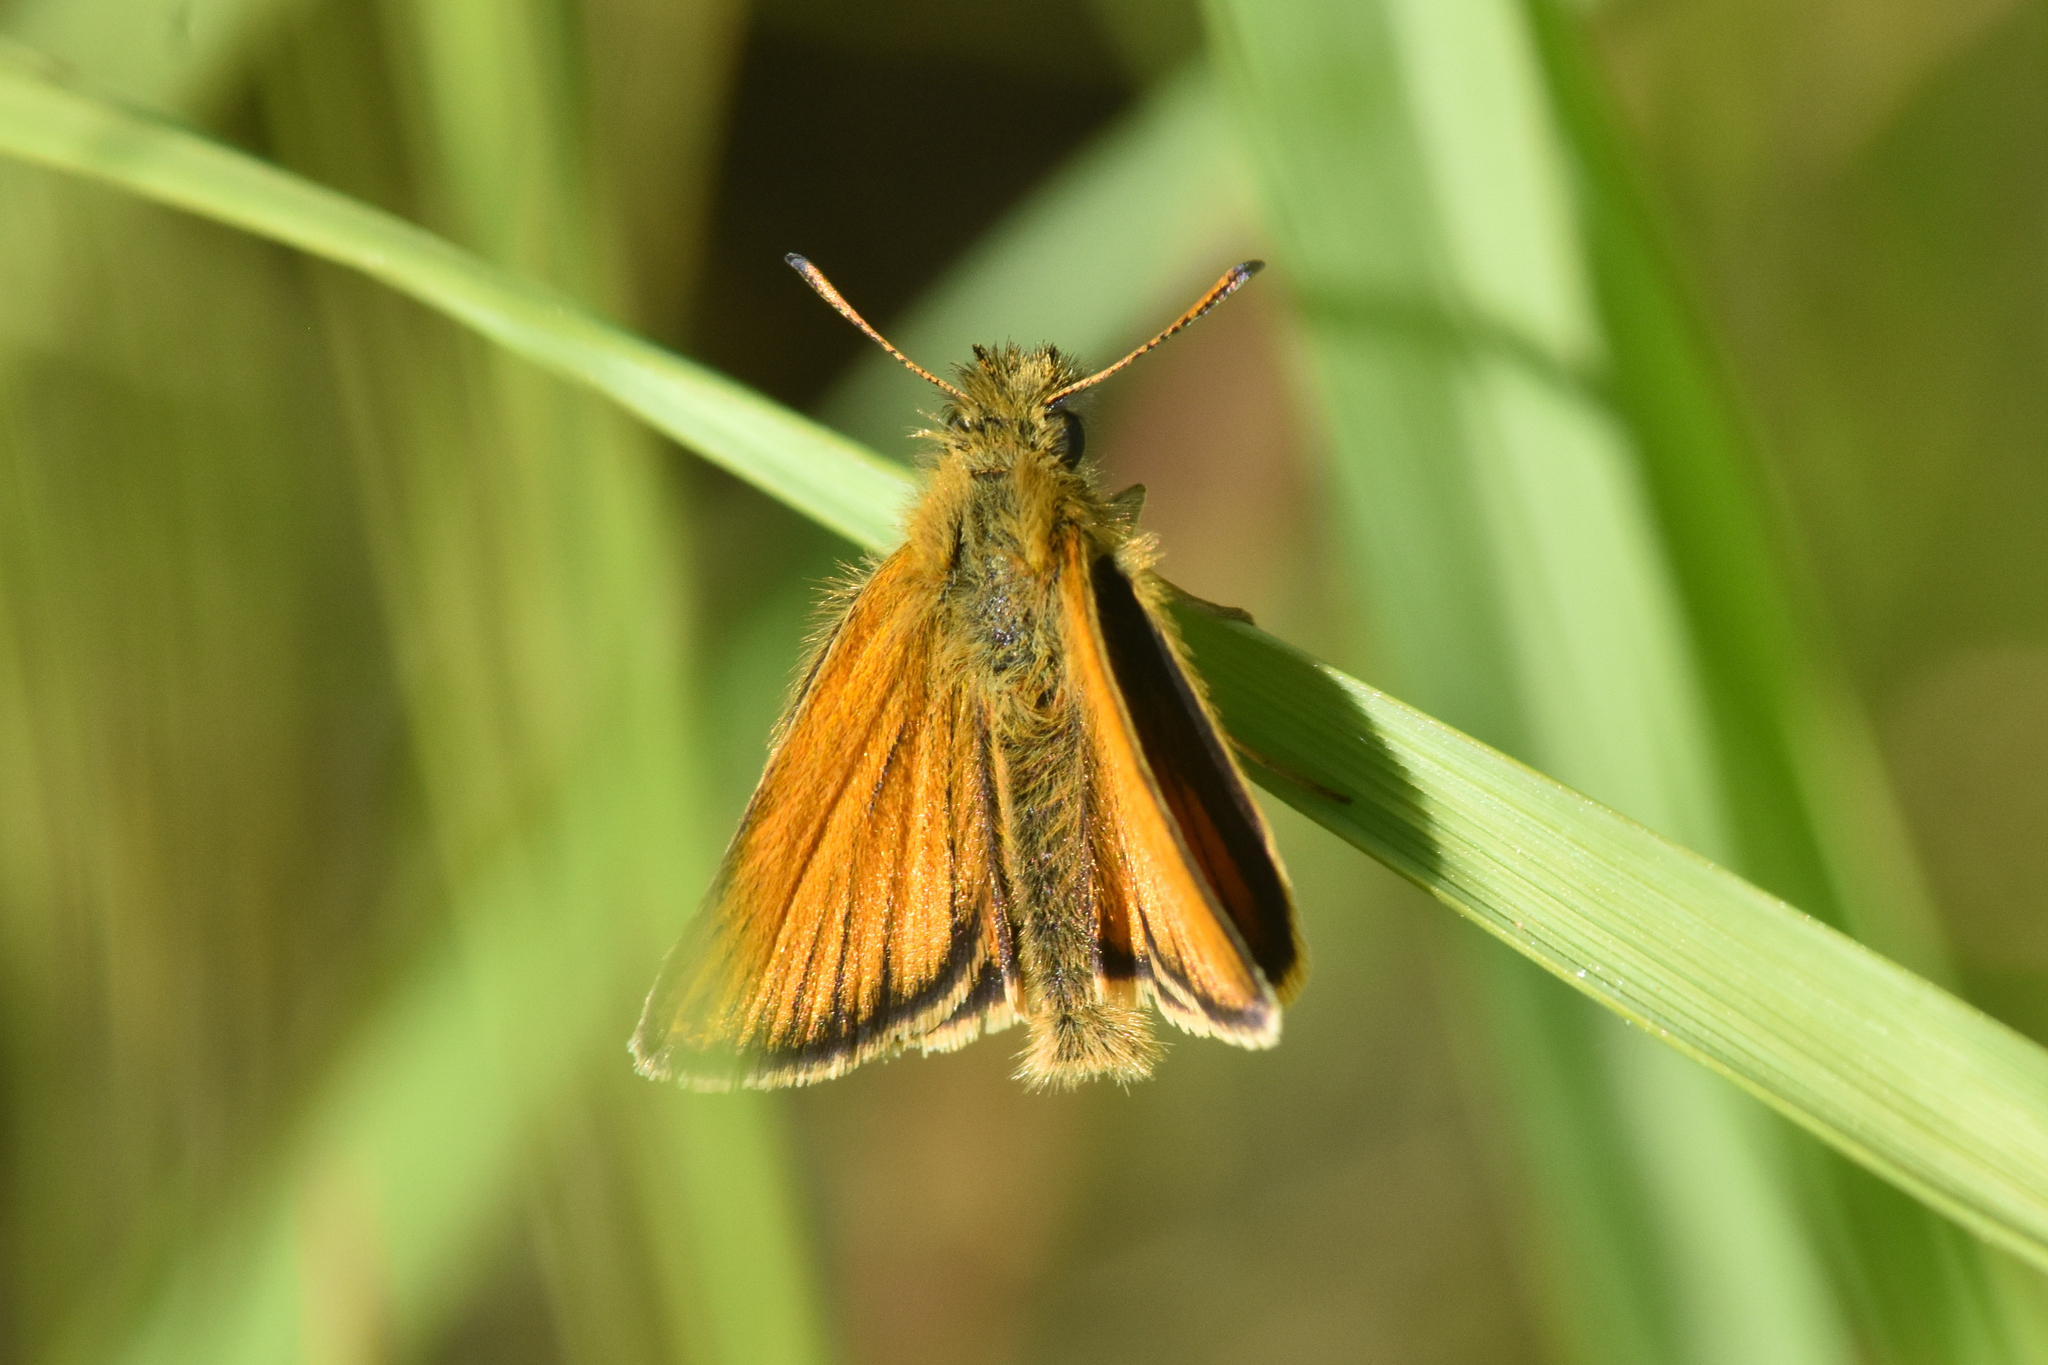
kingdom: Animalia
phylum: Arthropoda
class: Insecta
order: Lepidoptera
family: Hesperiidae
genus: Thymelicus
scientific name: Thymelicus lineola
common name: Essex skipper
